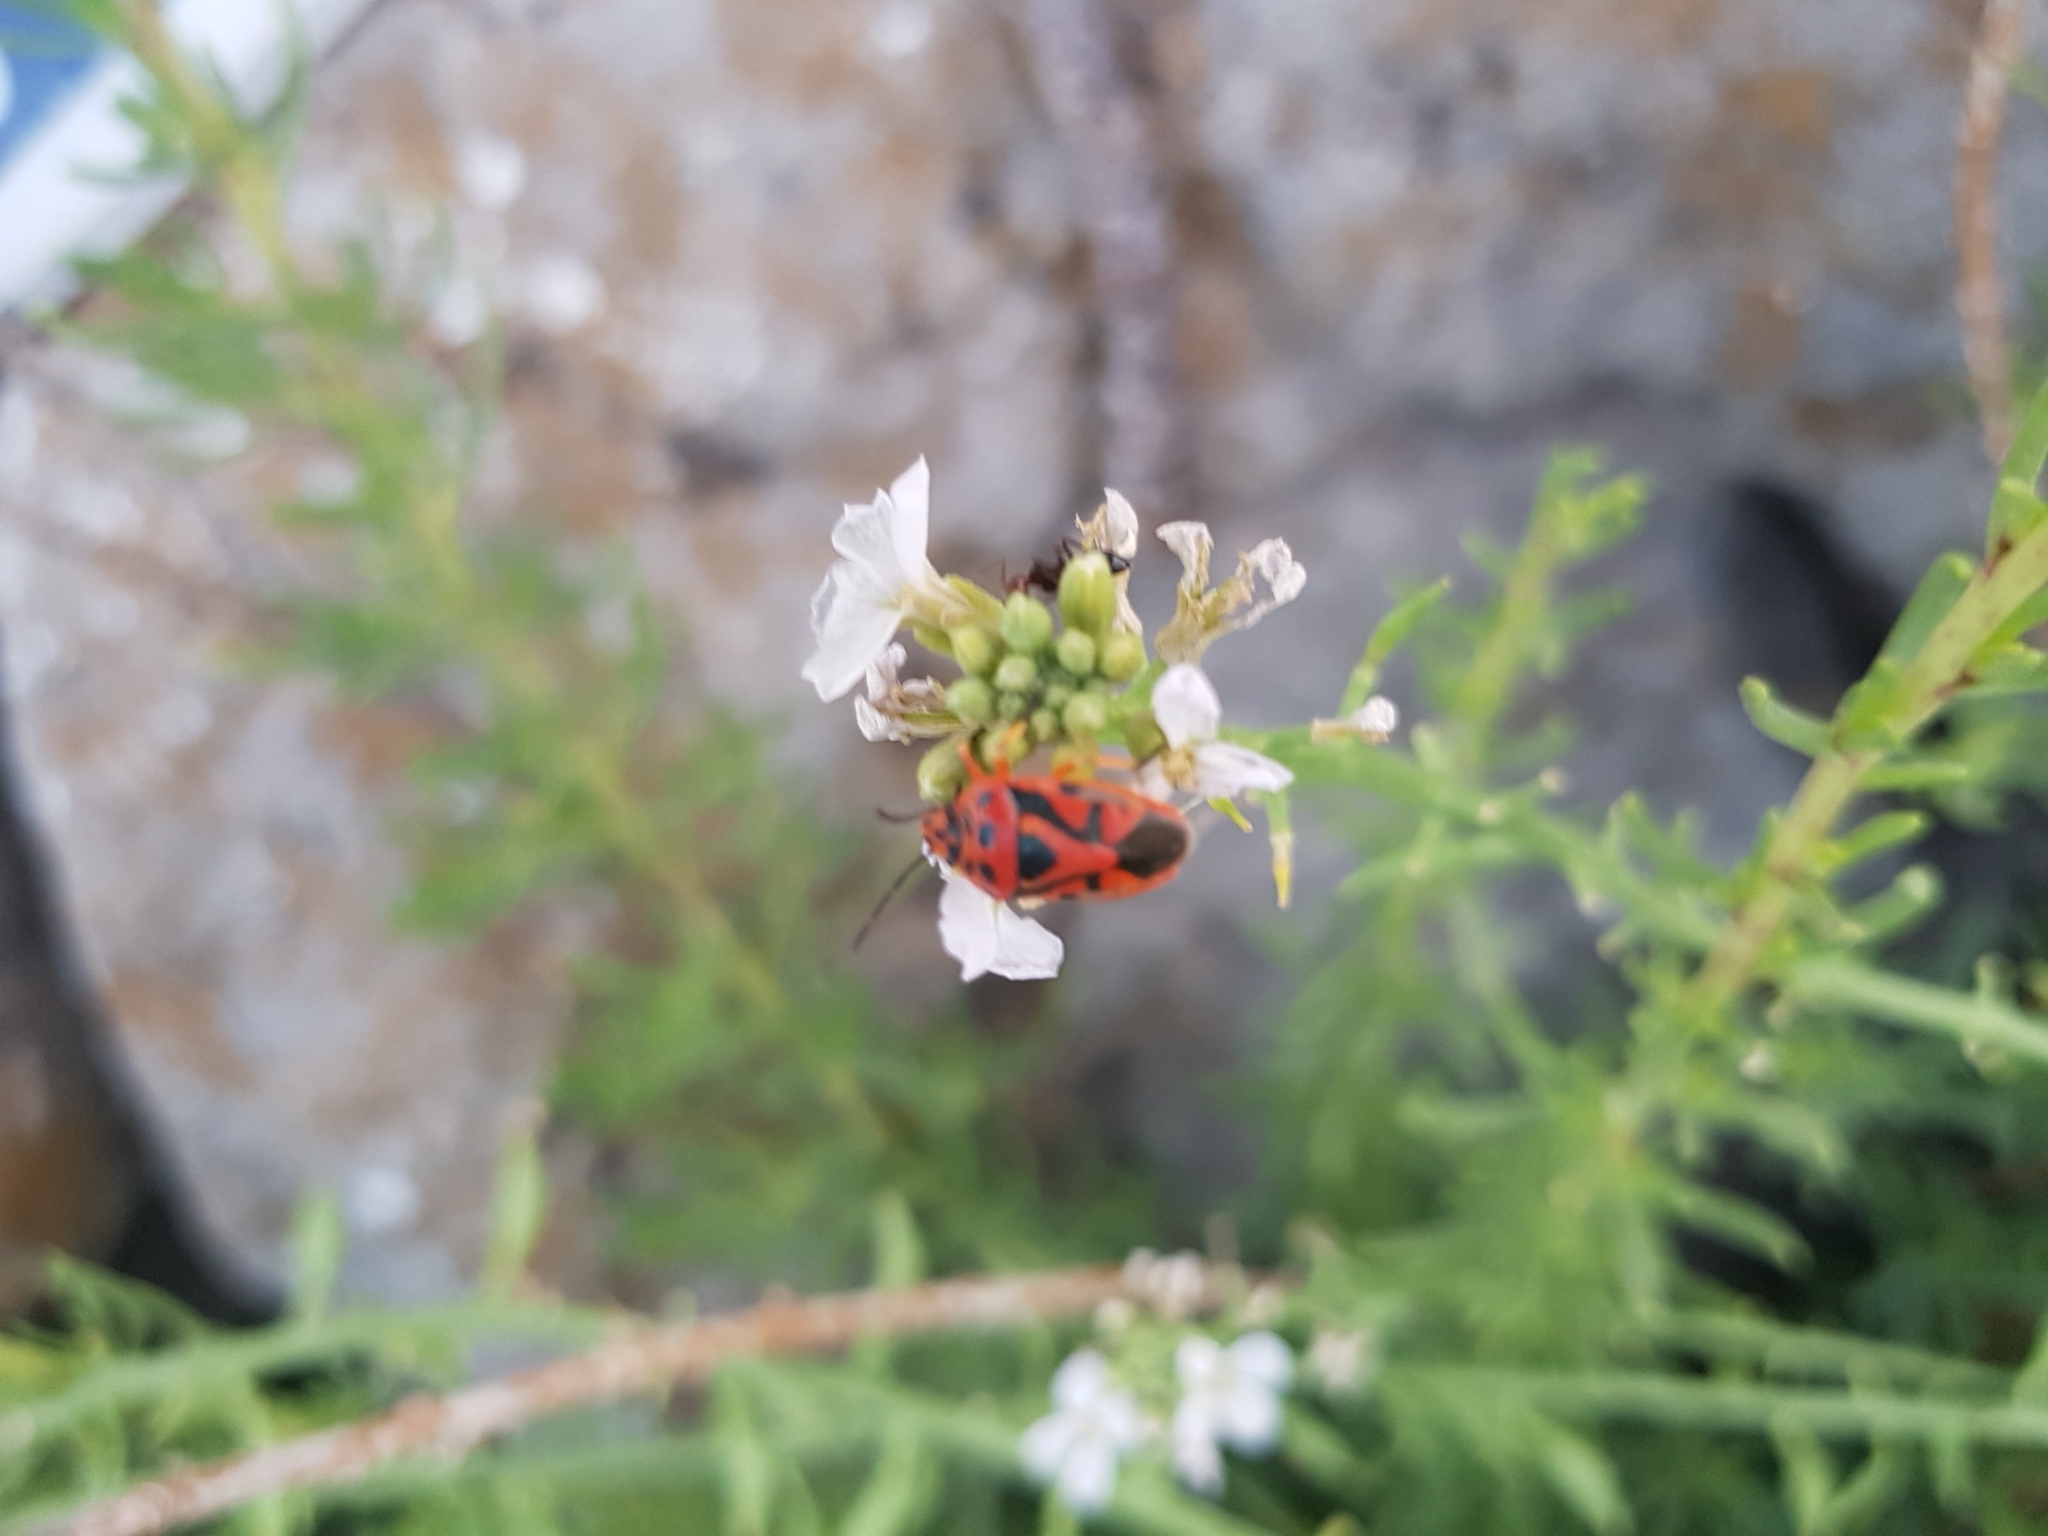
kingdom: Animalia
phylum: Arthropoda
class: Insecta
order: Hemiptera
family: Pentatomidae
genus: Eurydema
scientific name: Eurydema ornata
